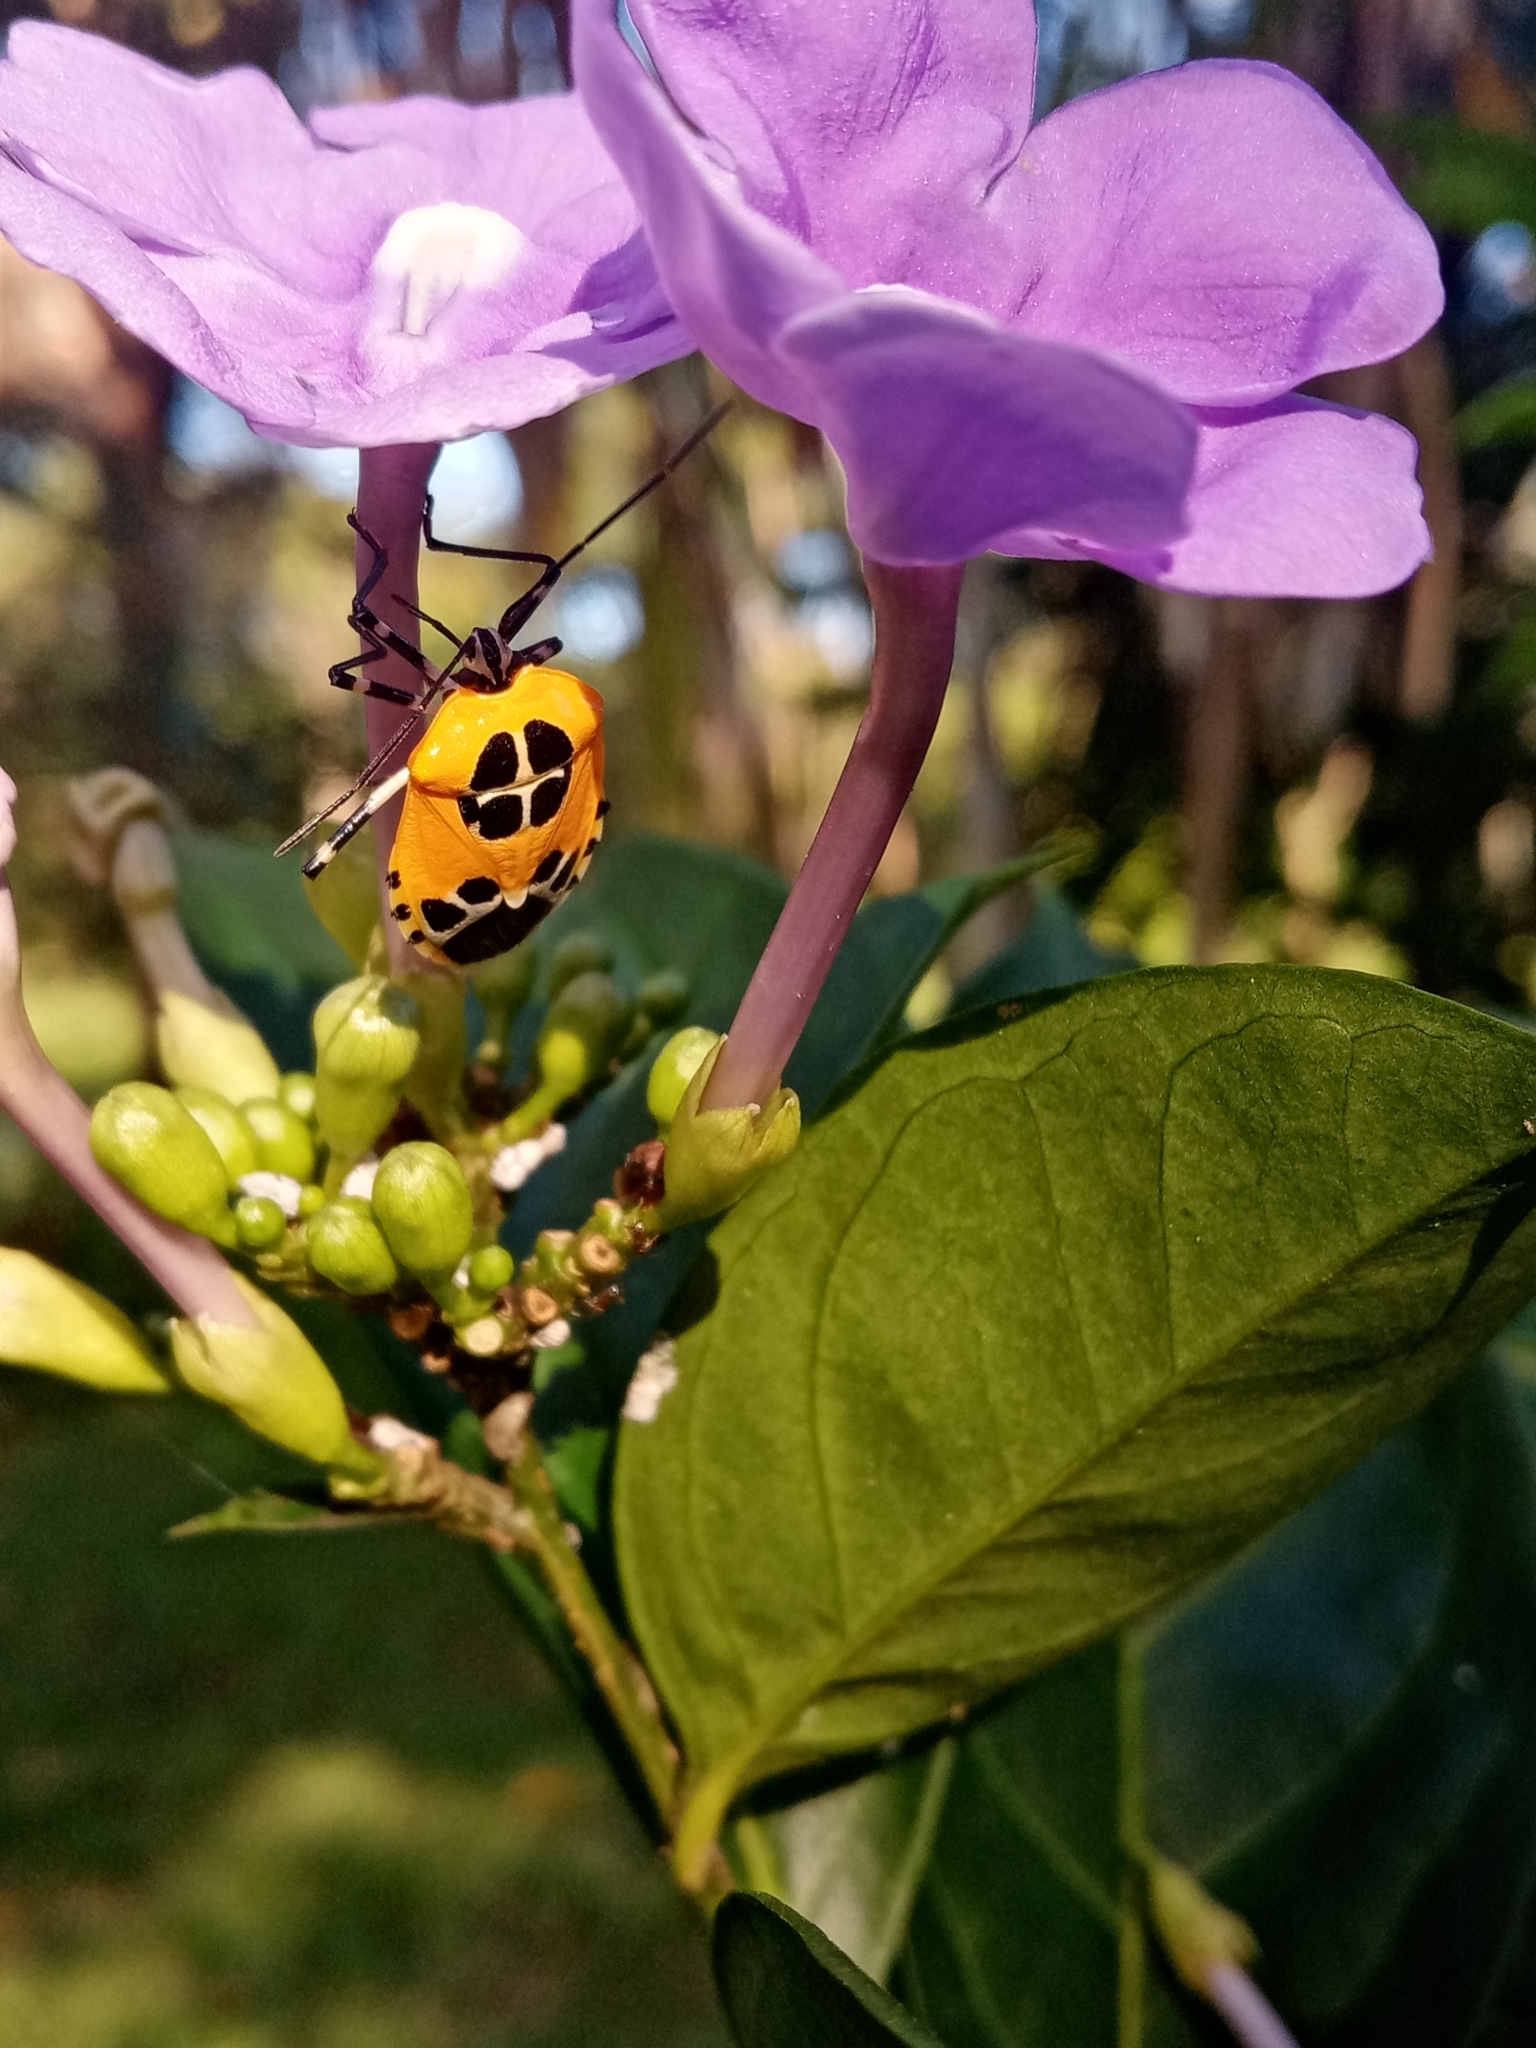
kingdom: Animalia
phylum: Arthropoda
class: Insecta
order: Hemiptera
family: Pentatomidae
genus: Runibia
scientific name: Runibia decorata
